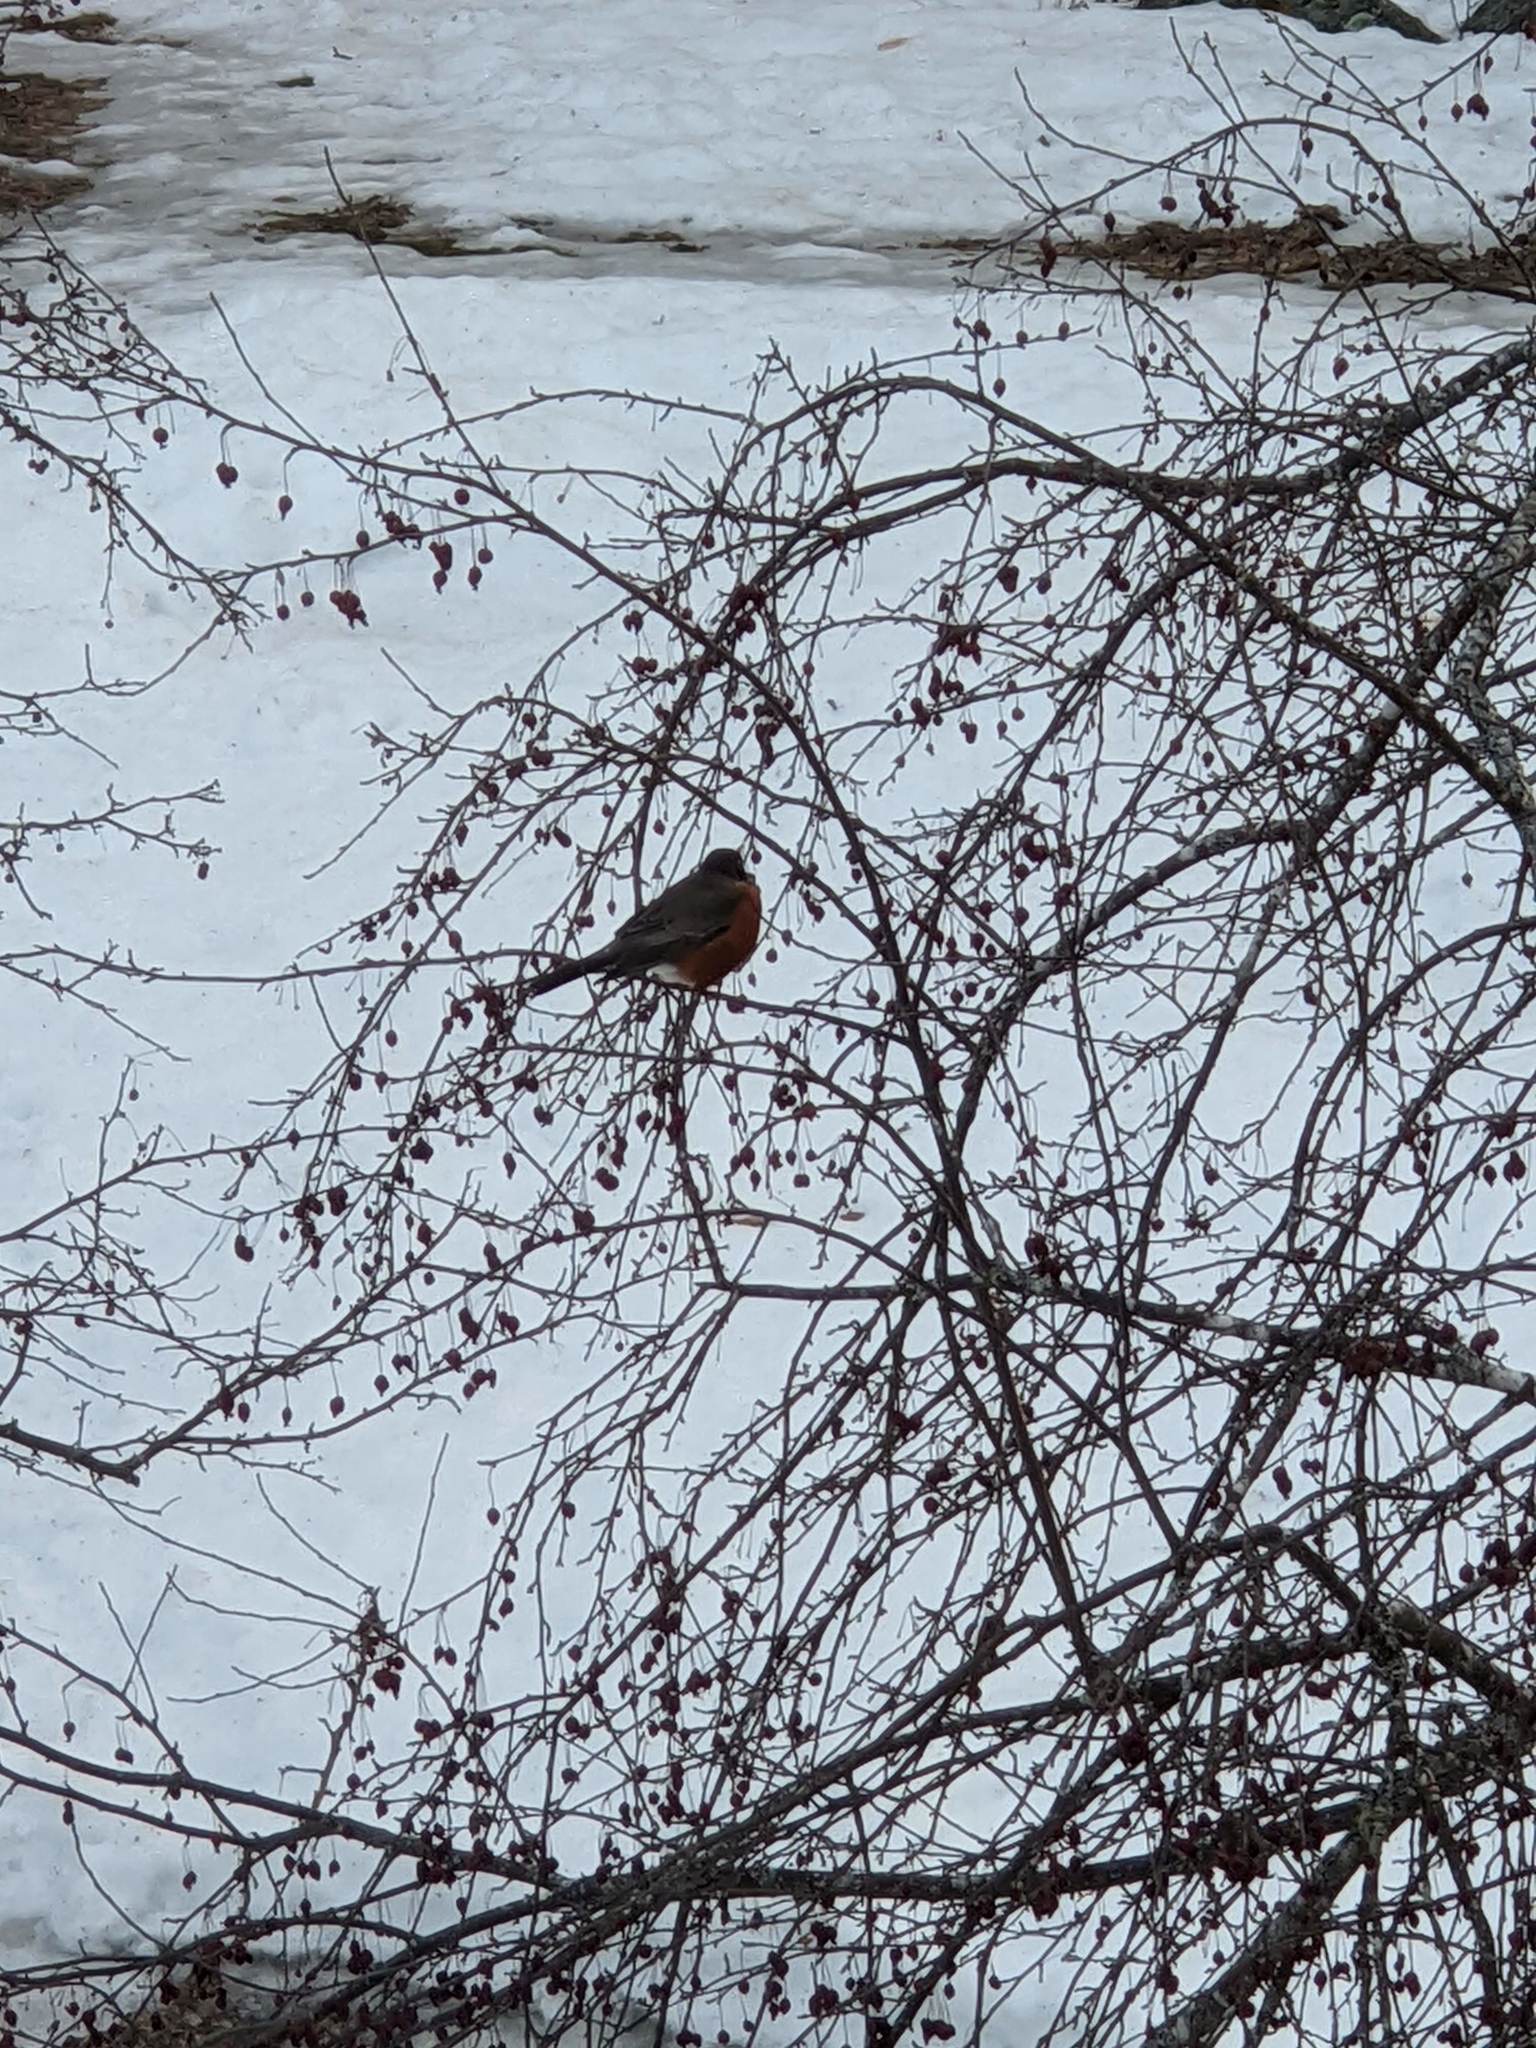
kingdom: Animalia
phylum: Chordata
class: Aves
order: Passeriformes
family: Turdidae
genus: Turdus
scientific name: Turdus migratorius
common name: American robin
